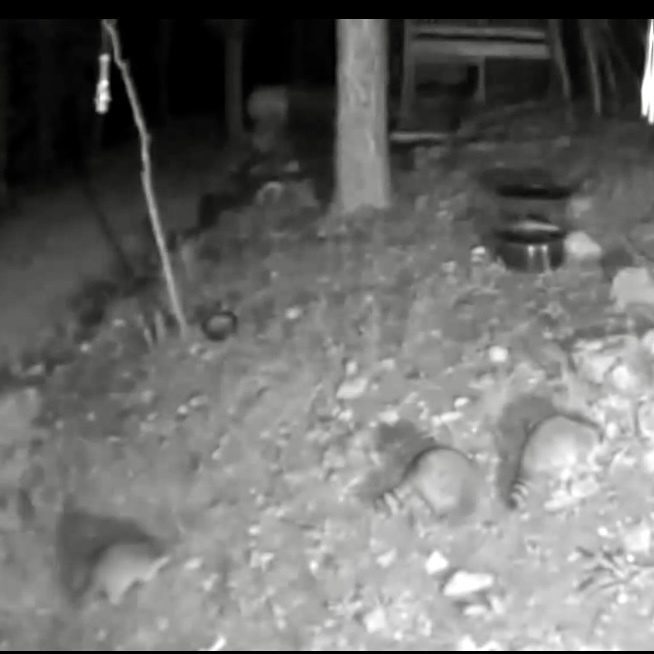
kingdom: Animalia
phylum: Chordata
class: Mammalia
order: Carnivora
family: Procyonidae
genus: Procyon
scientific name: Procyon lotor
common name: Raccoon
